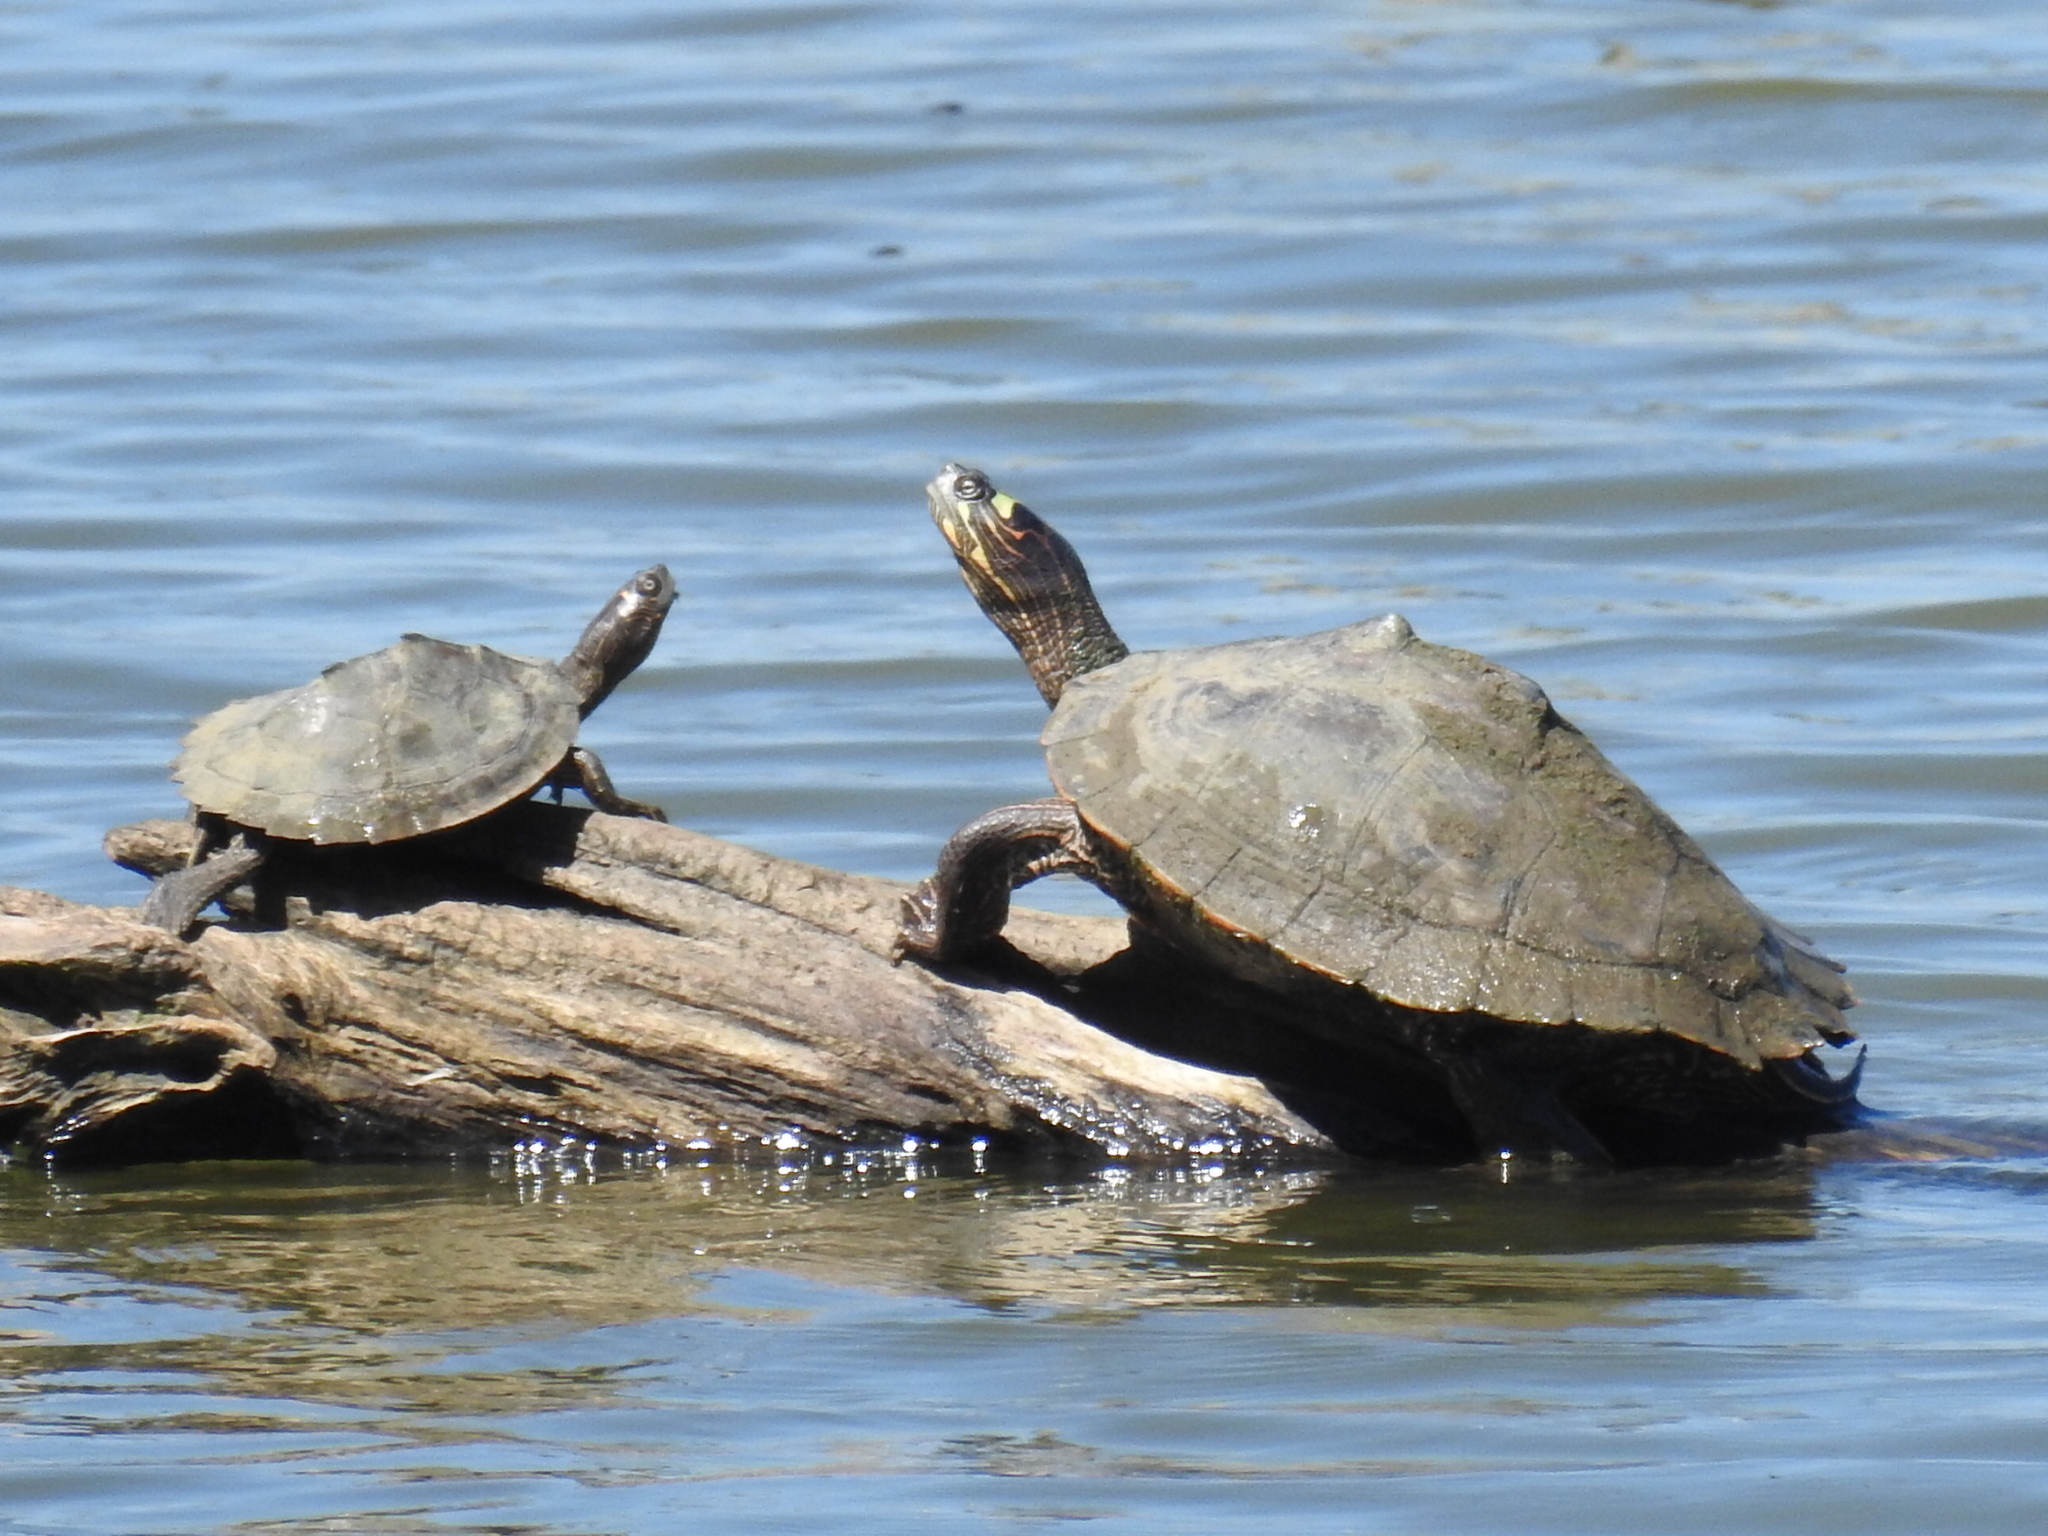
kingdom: Animalia
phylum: Chordata
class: Testudines
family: Emydidae
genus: Graptemys
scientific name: Graptemys pseudogeographica
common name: False map turtle
